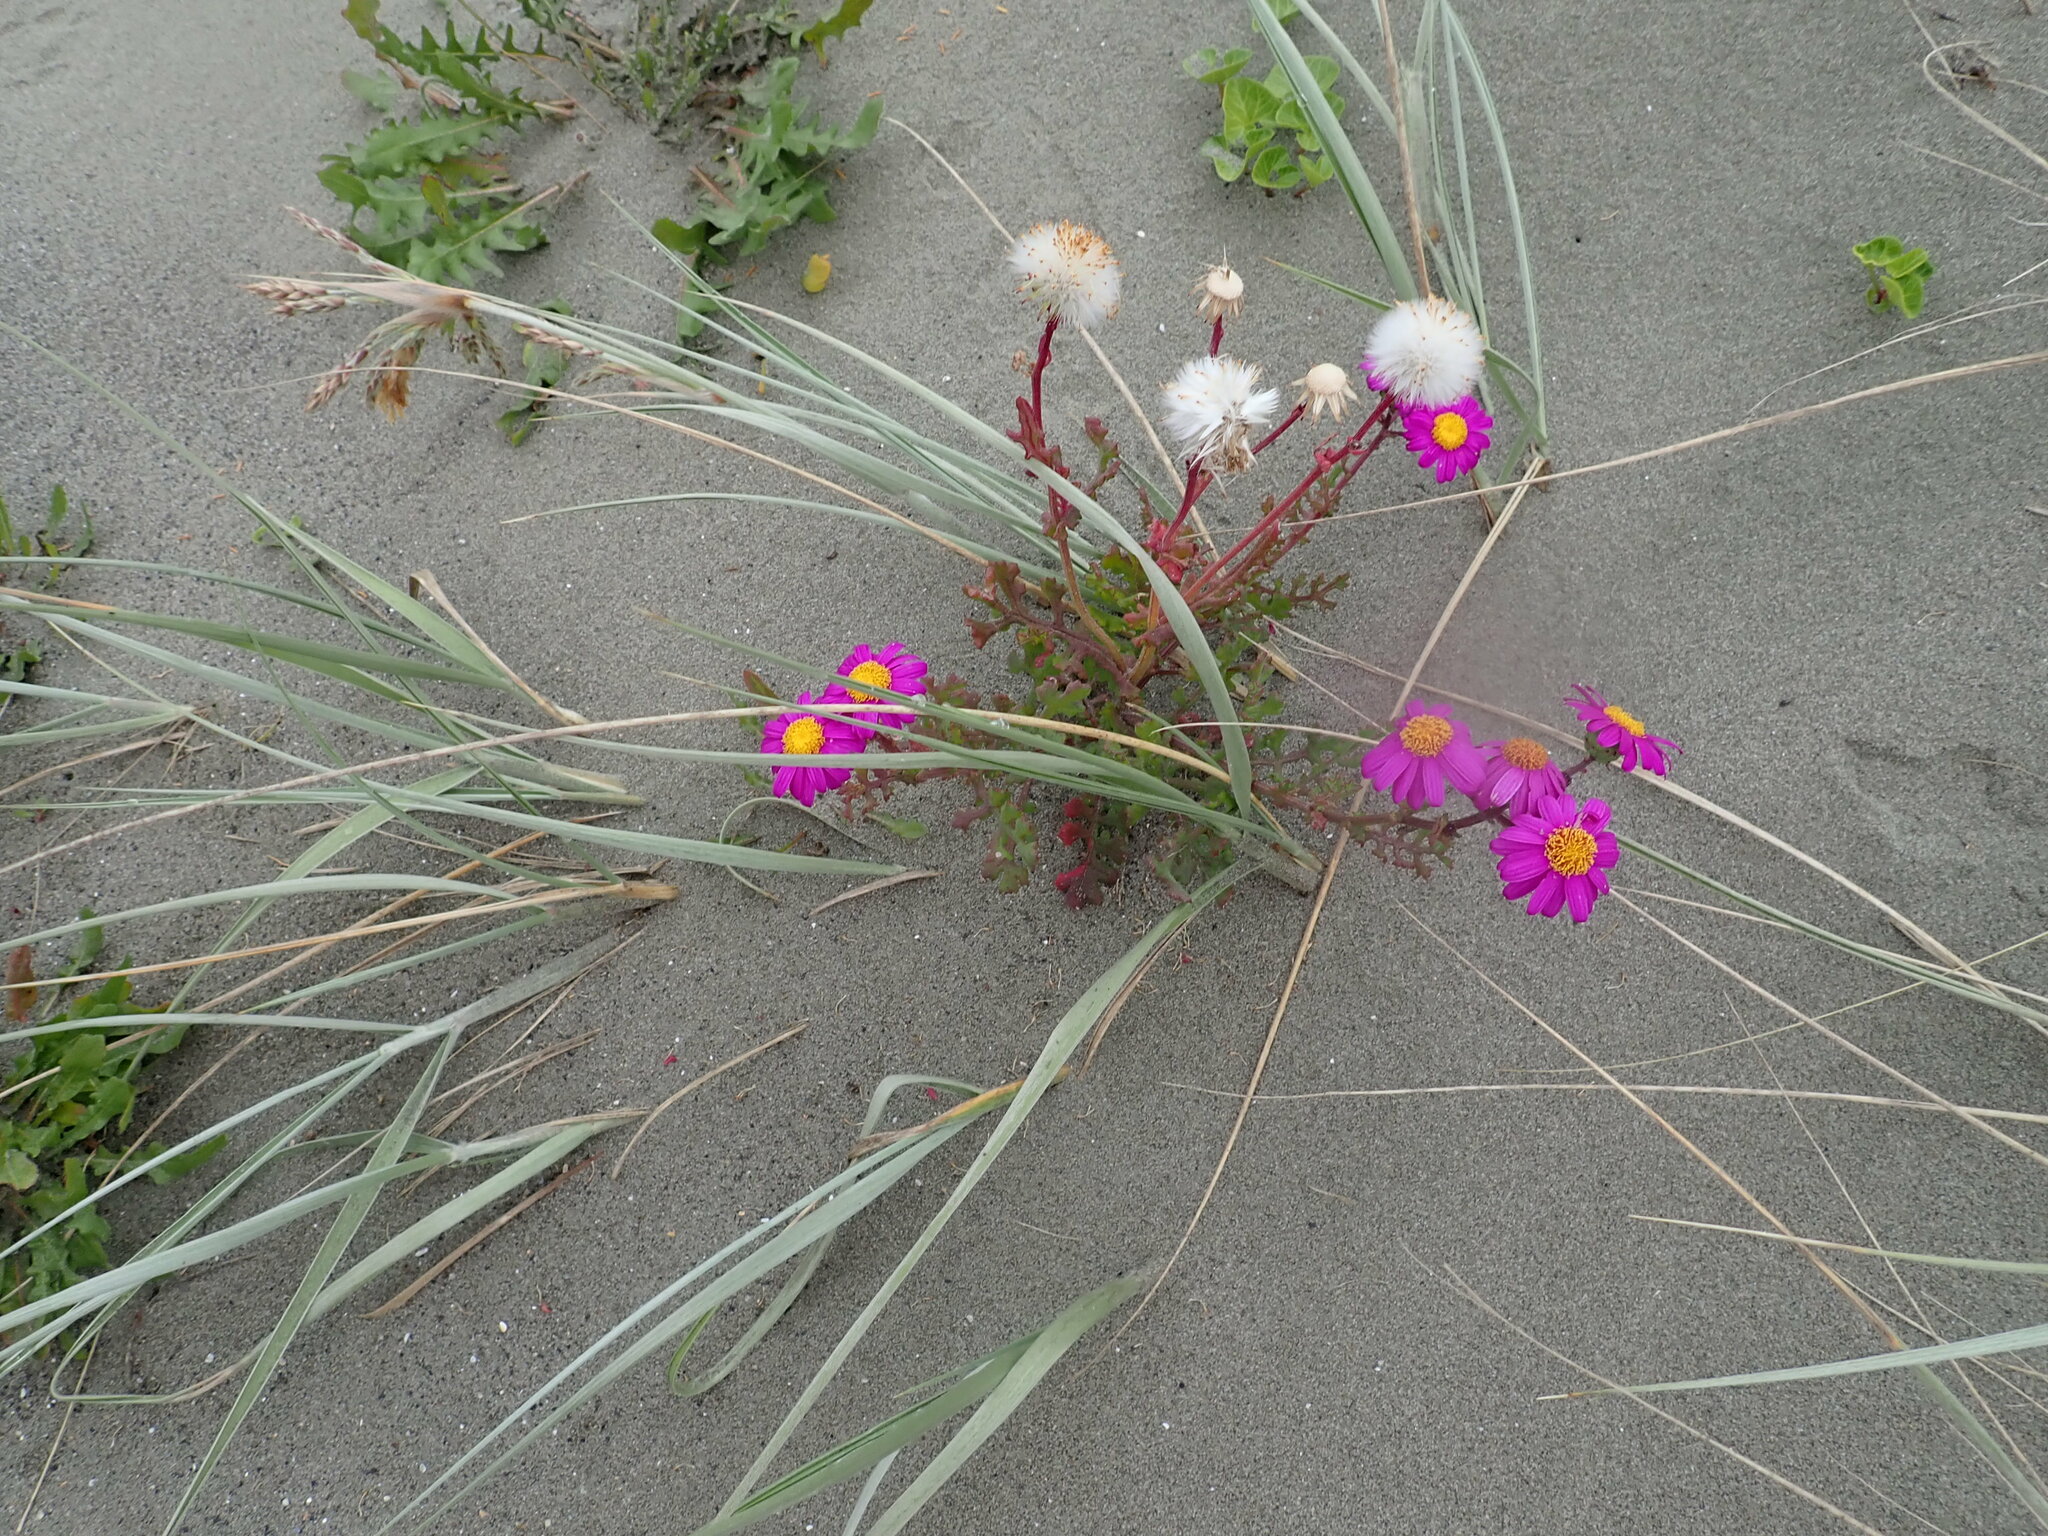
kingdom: Plantae
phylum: Tracheophyta
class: Magnoliopsida
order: Asterales
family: Asteraceae
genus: Senecio
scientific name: Senecio elegans
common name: Purple groundsel
